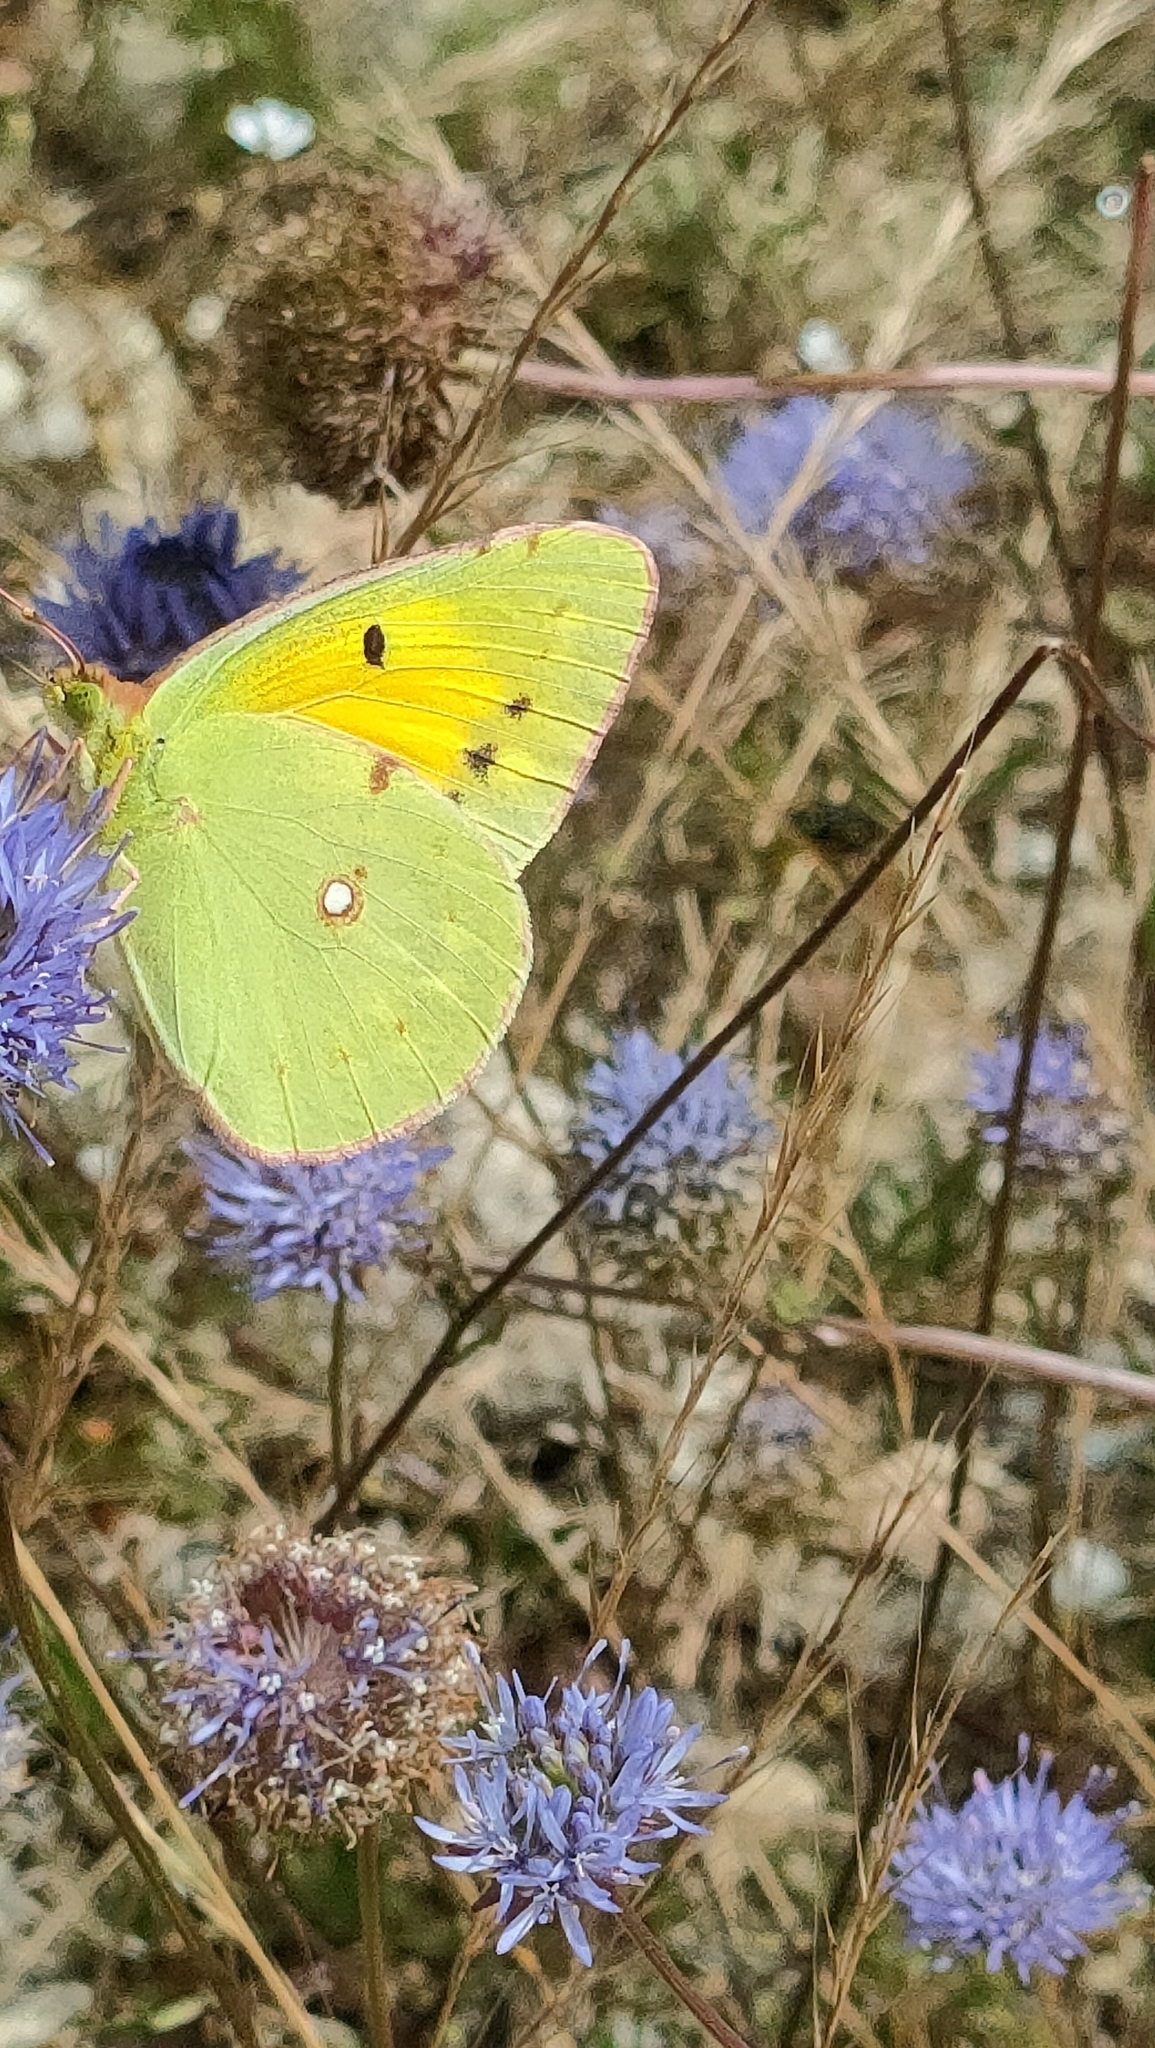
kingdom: Animalia
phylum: Arthropoda
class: Insecta
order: Lepidoptera
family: Pieridae
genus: Colias
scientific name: Colias croceus
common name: Clouded yellow
